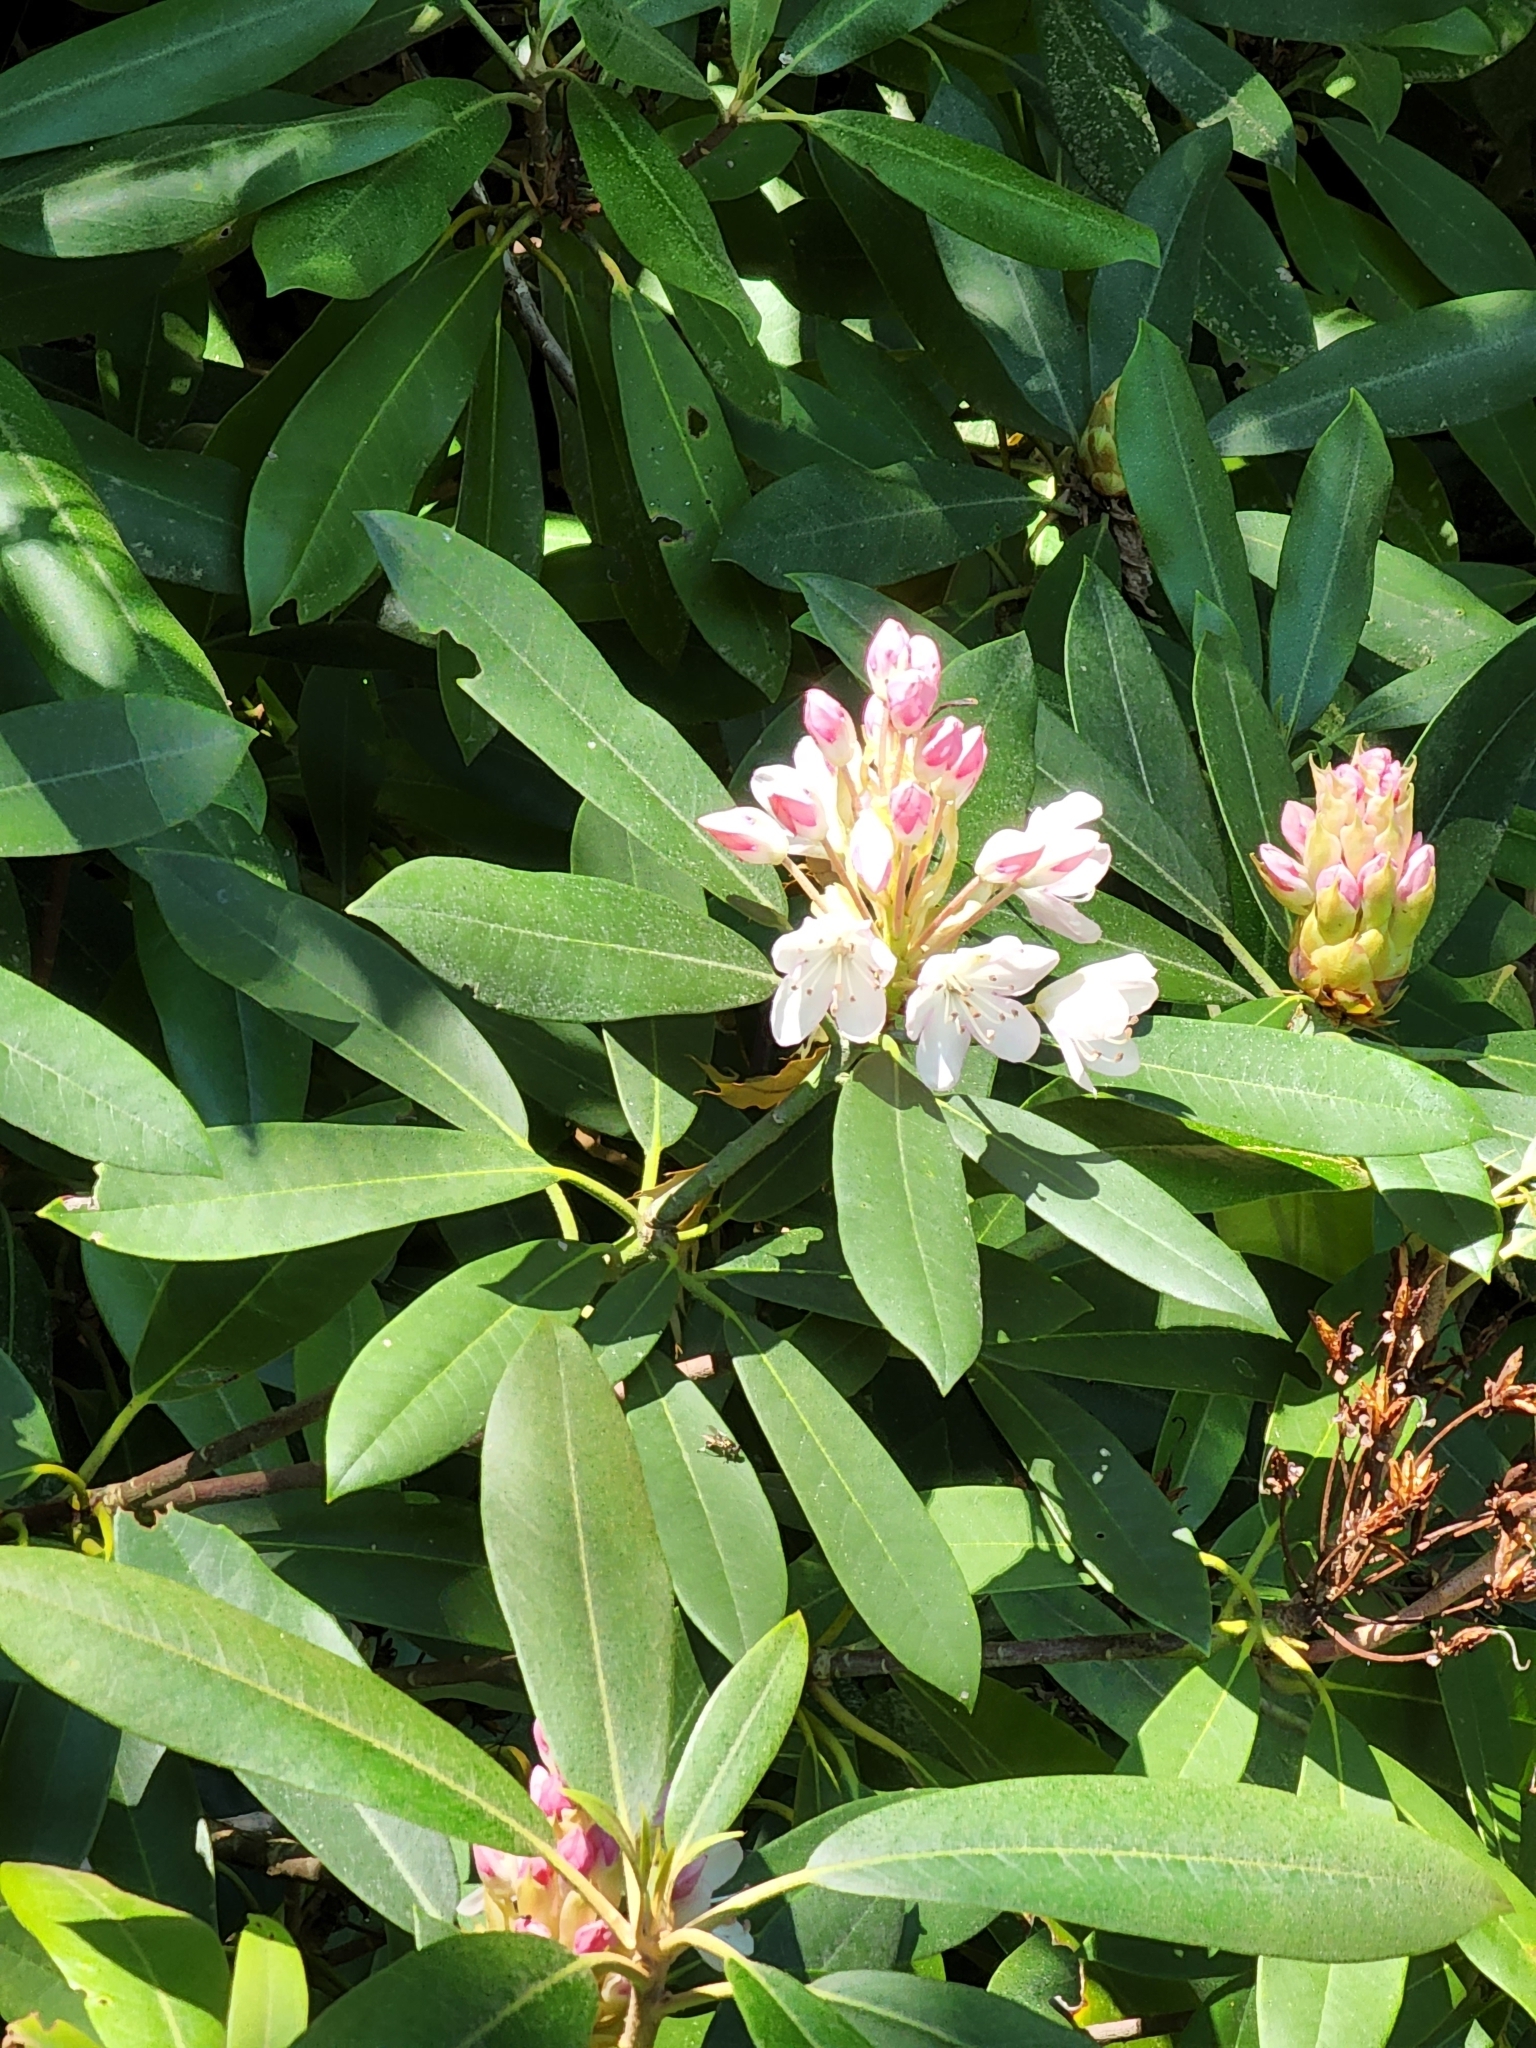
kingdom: Plantae
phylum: Tracheophyta
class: Magnoliopsida
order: Ericales
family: Ericaceae
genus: Rhododendron
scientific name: Rhododendron maximum
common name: Great rhododendron
